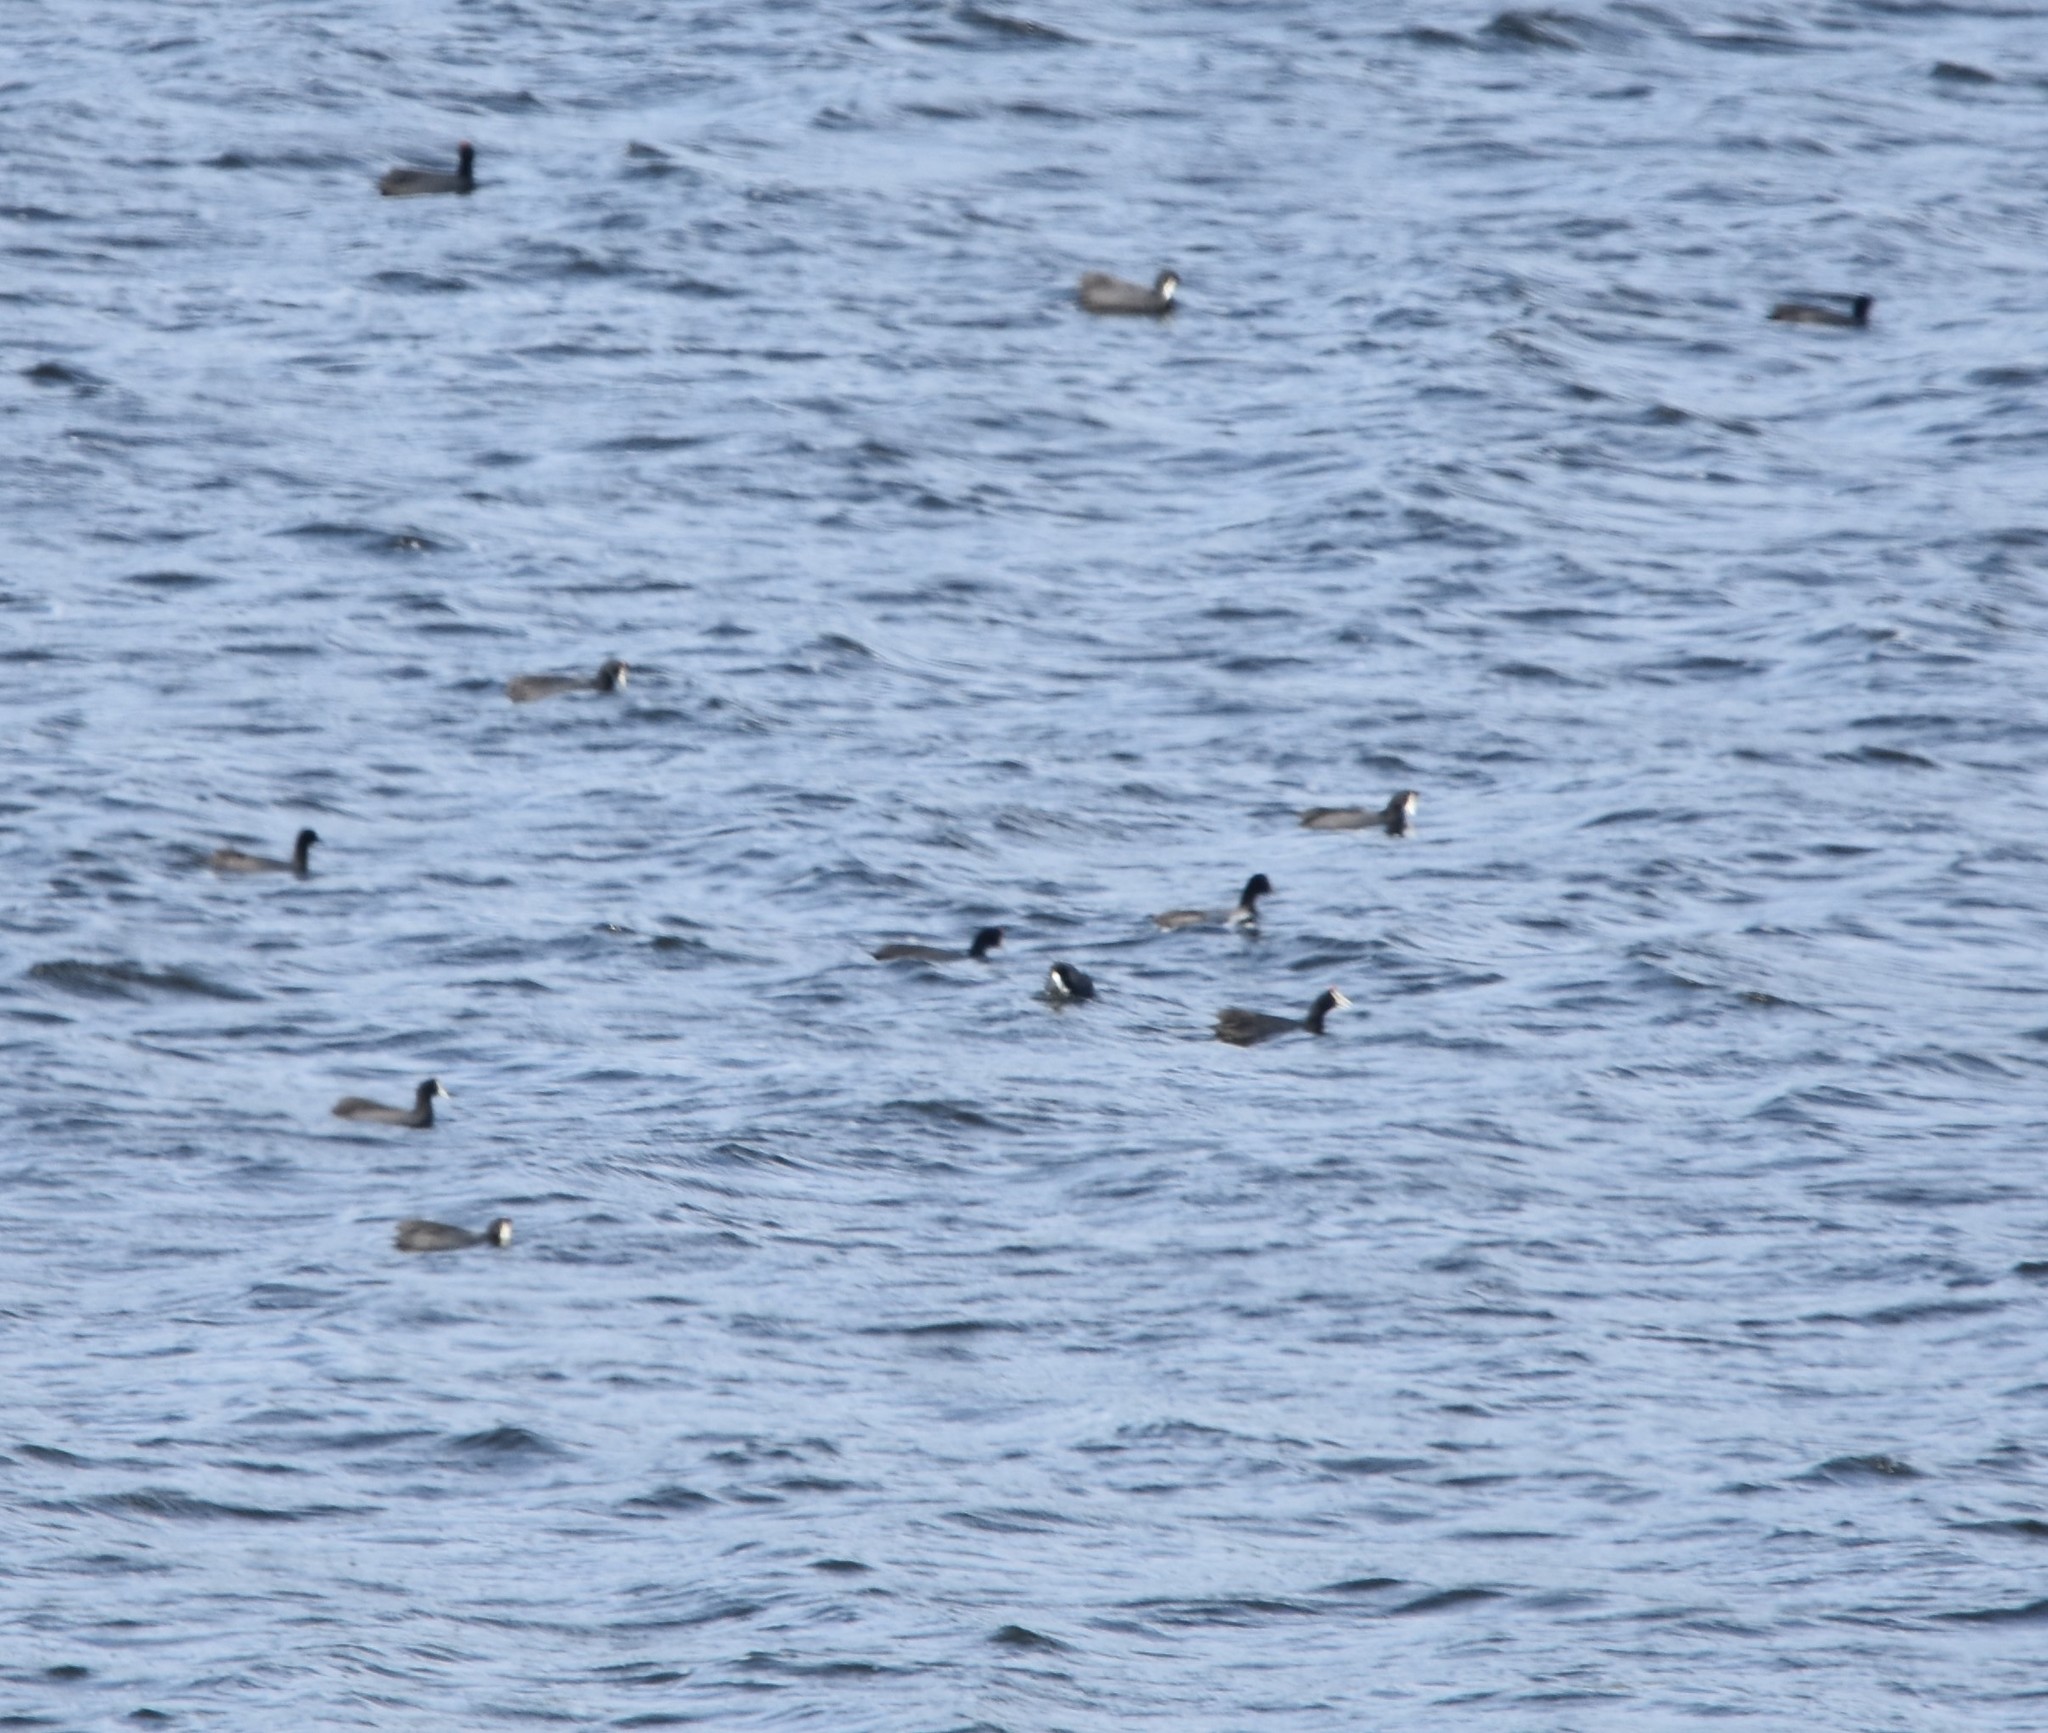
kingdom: Animalia
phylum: Chordata
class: Aves
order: Gruiformes
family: Rallidae
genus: Fulica
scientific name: Fulica cristata
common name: Red-knobbed coot
